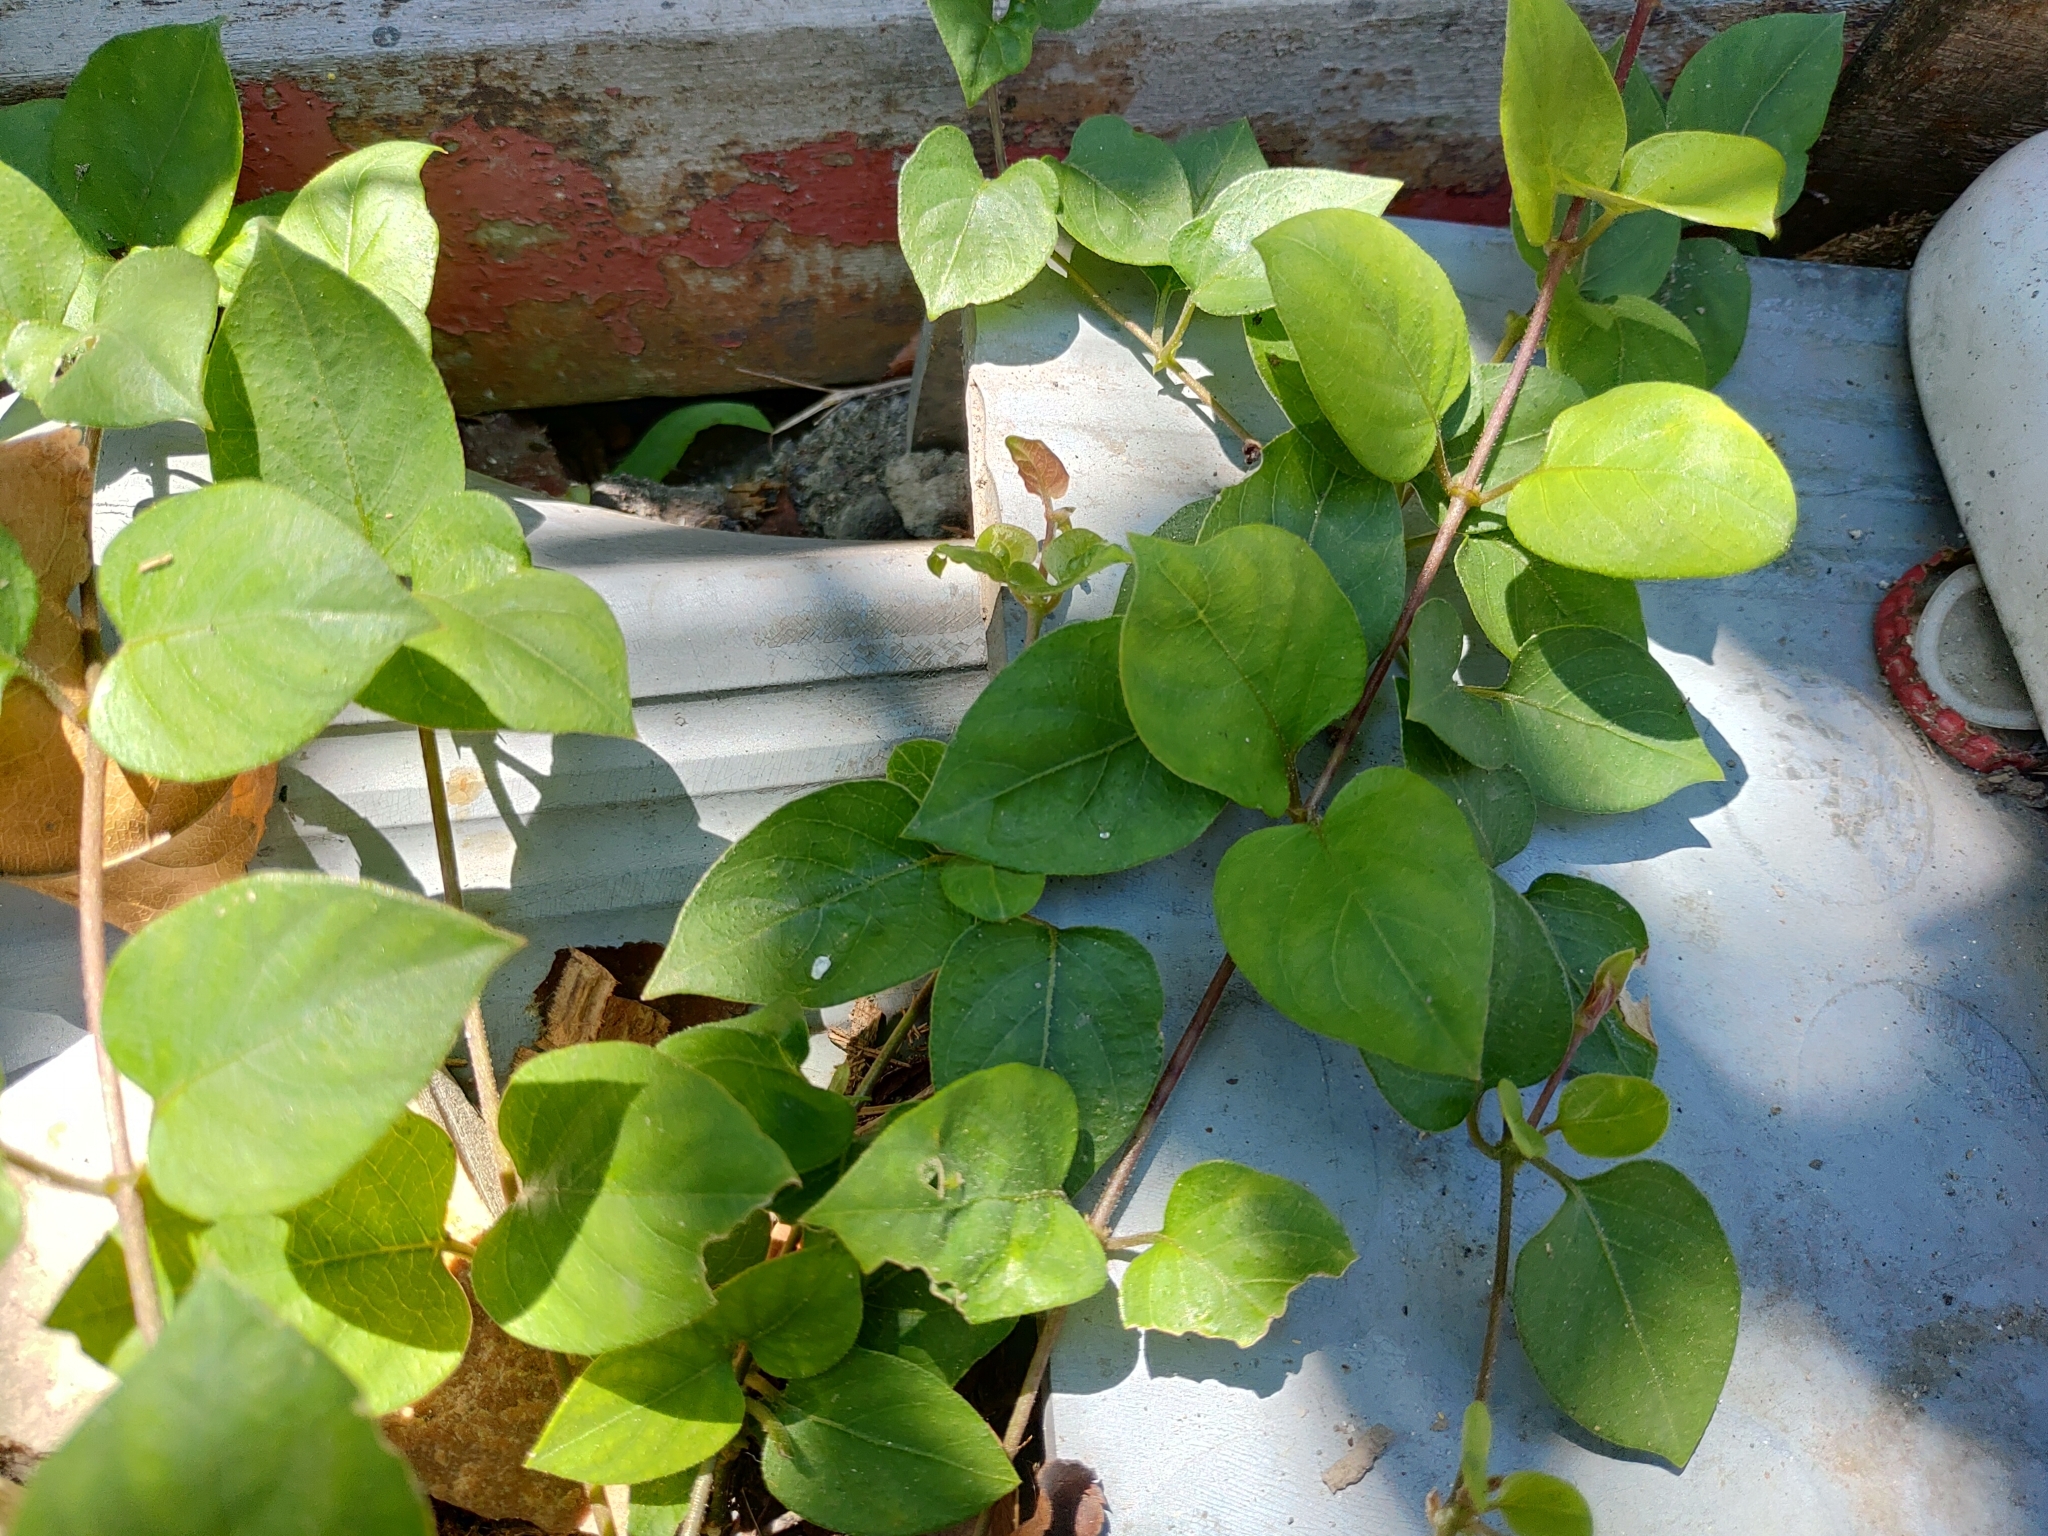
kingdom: Plantae
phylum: Tracheophyta
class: Magnoliopsida
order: Gentianales
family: Rubiaceae
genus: Paederia
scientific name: Paederia foetida
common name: Stinkvine
